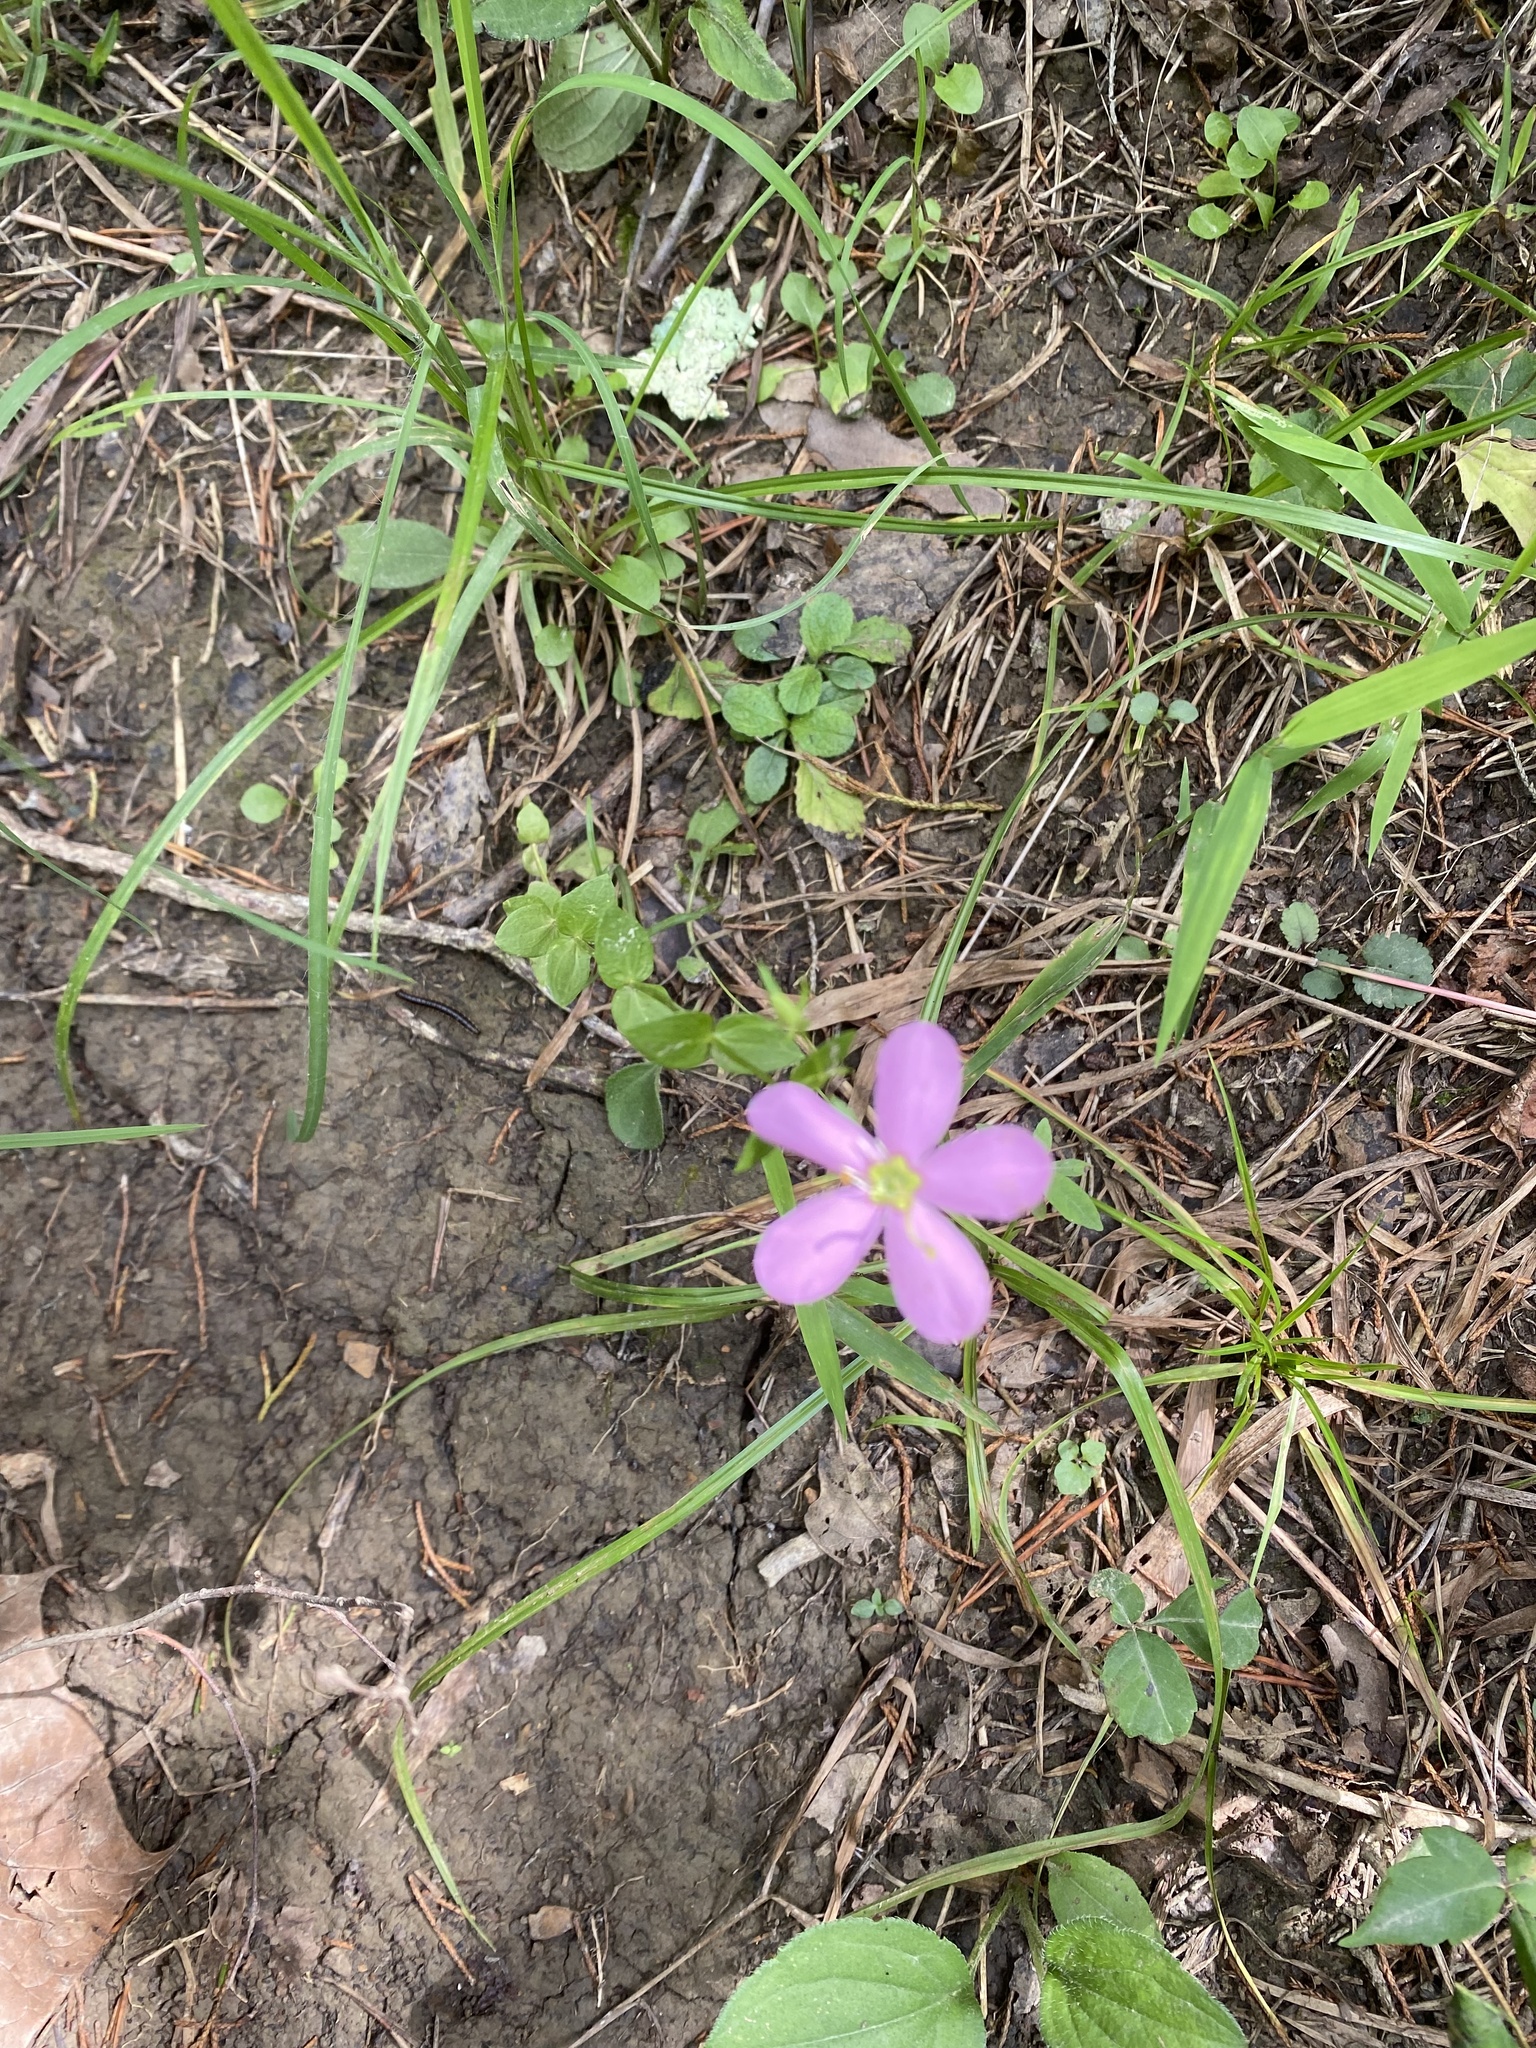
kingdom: Plantae
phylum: Tracheophyta
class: Magnoliopsida
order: Gentianales
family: Gentianaceae
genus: Sabatia
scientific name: Sabatia angularis
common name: Rose-pink
